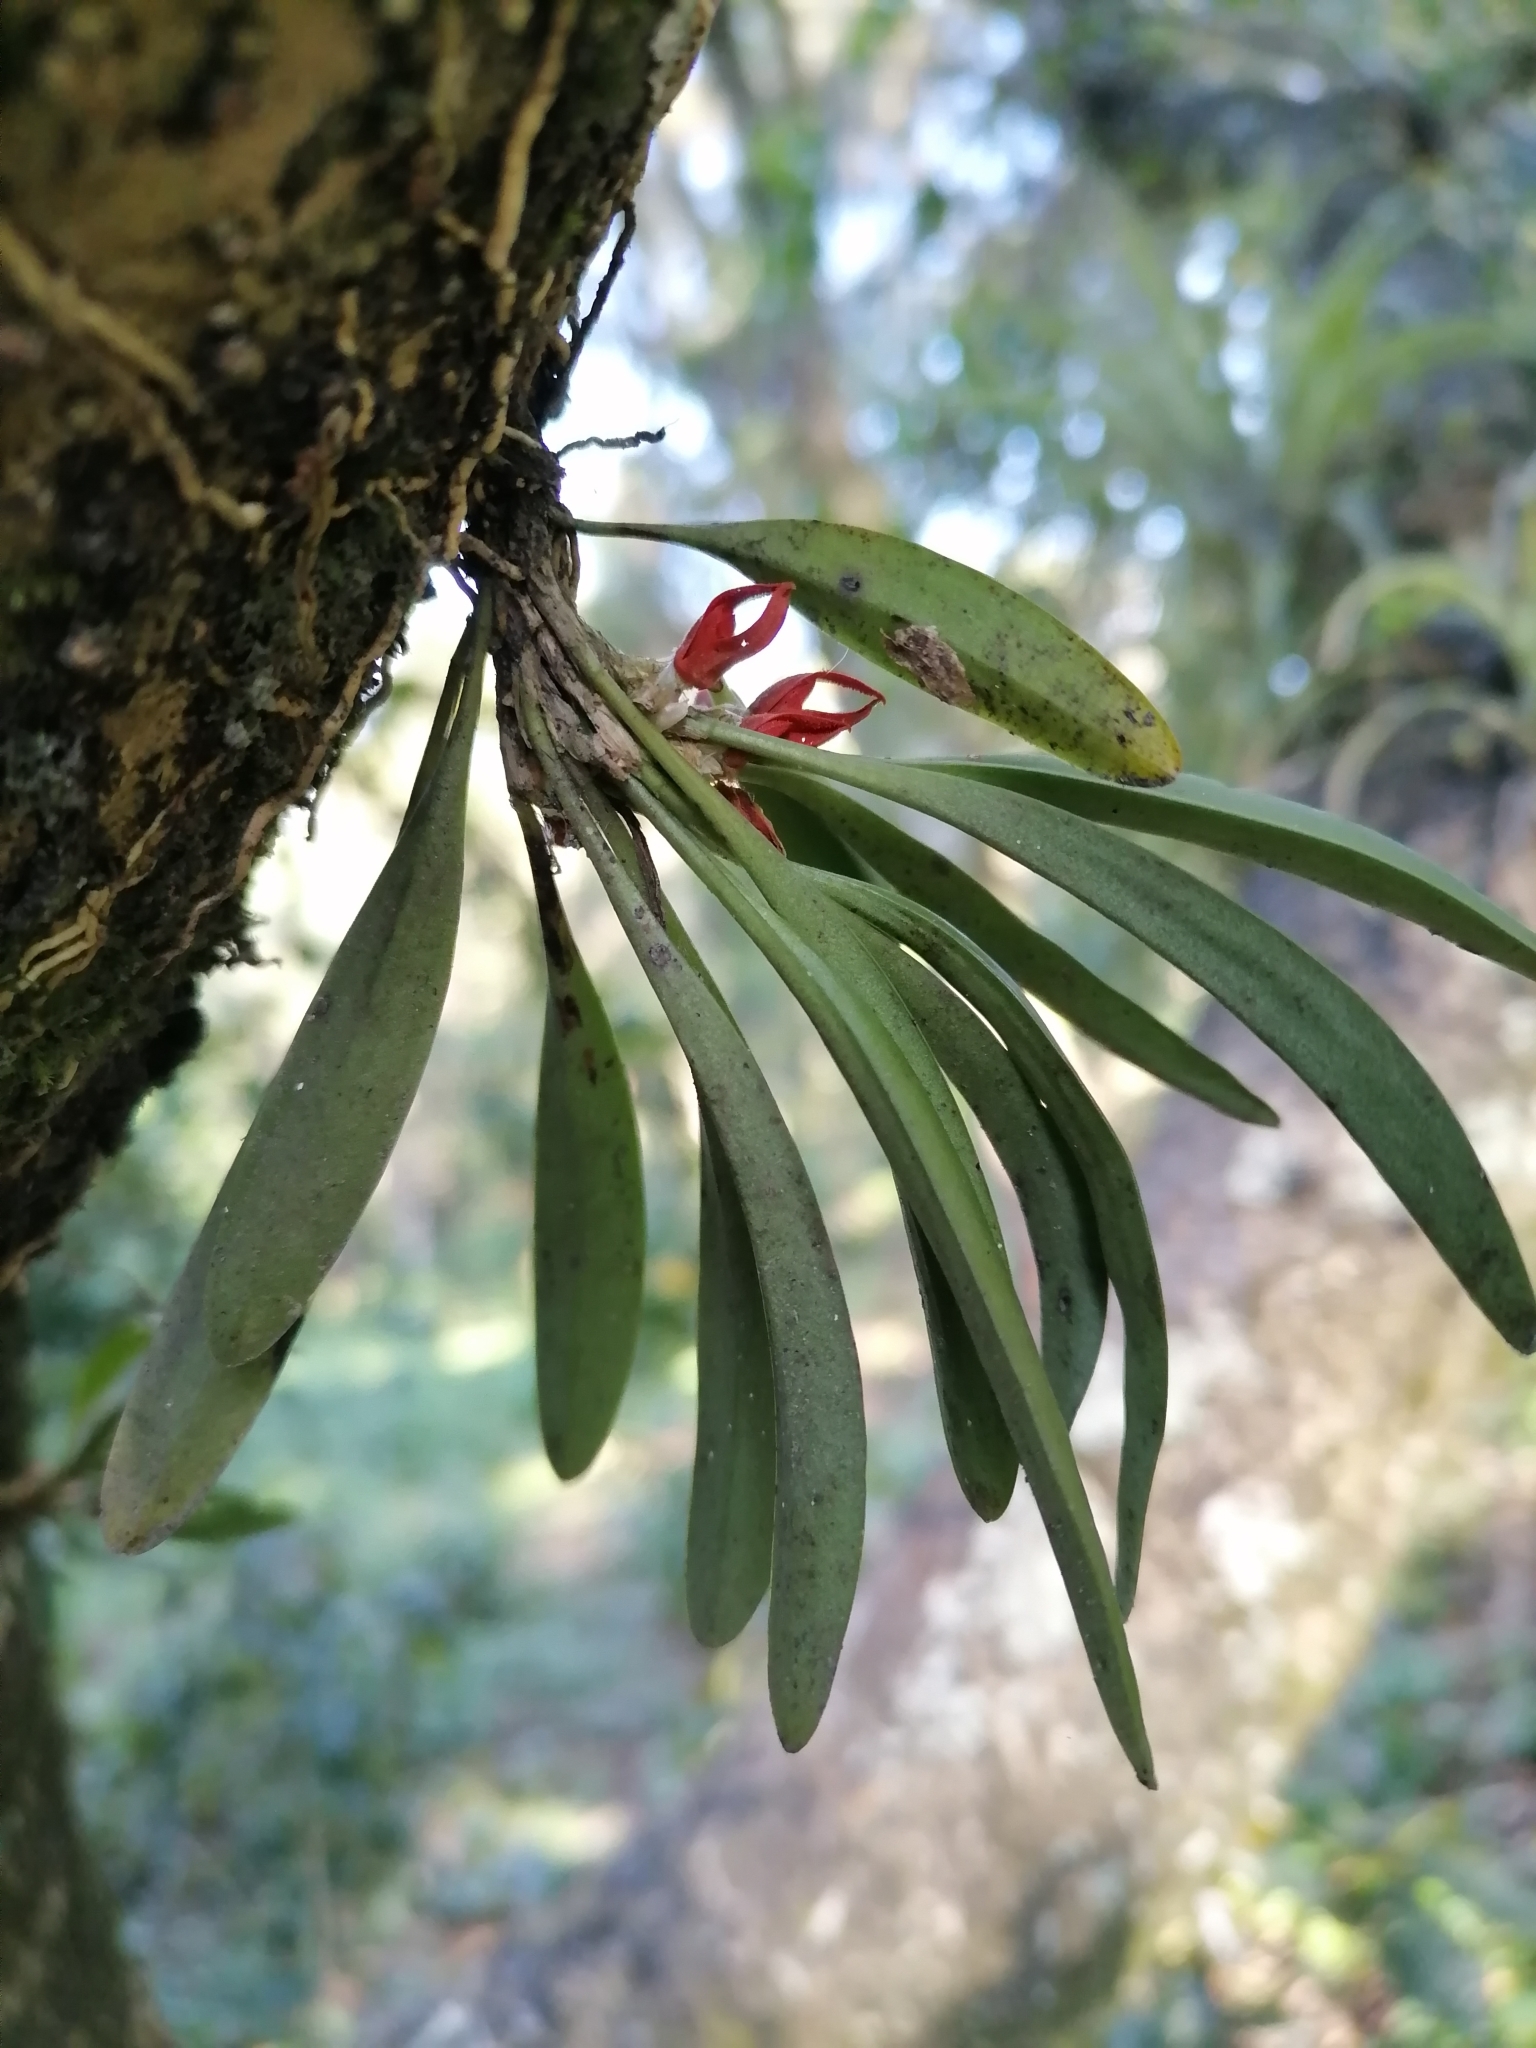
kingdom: Plantae
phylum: Tracheophyta
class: Liliopsida
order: Asparagales
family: Orchidaceae
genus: Specklinia
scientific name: Specklinia tribuloides
